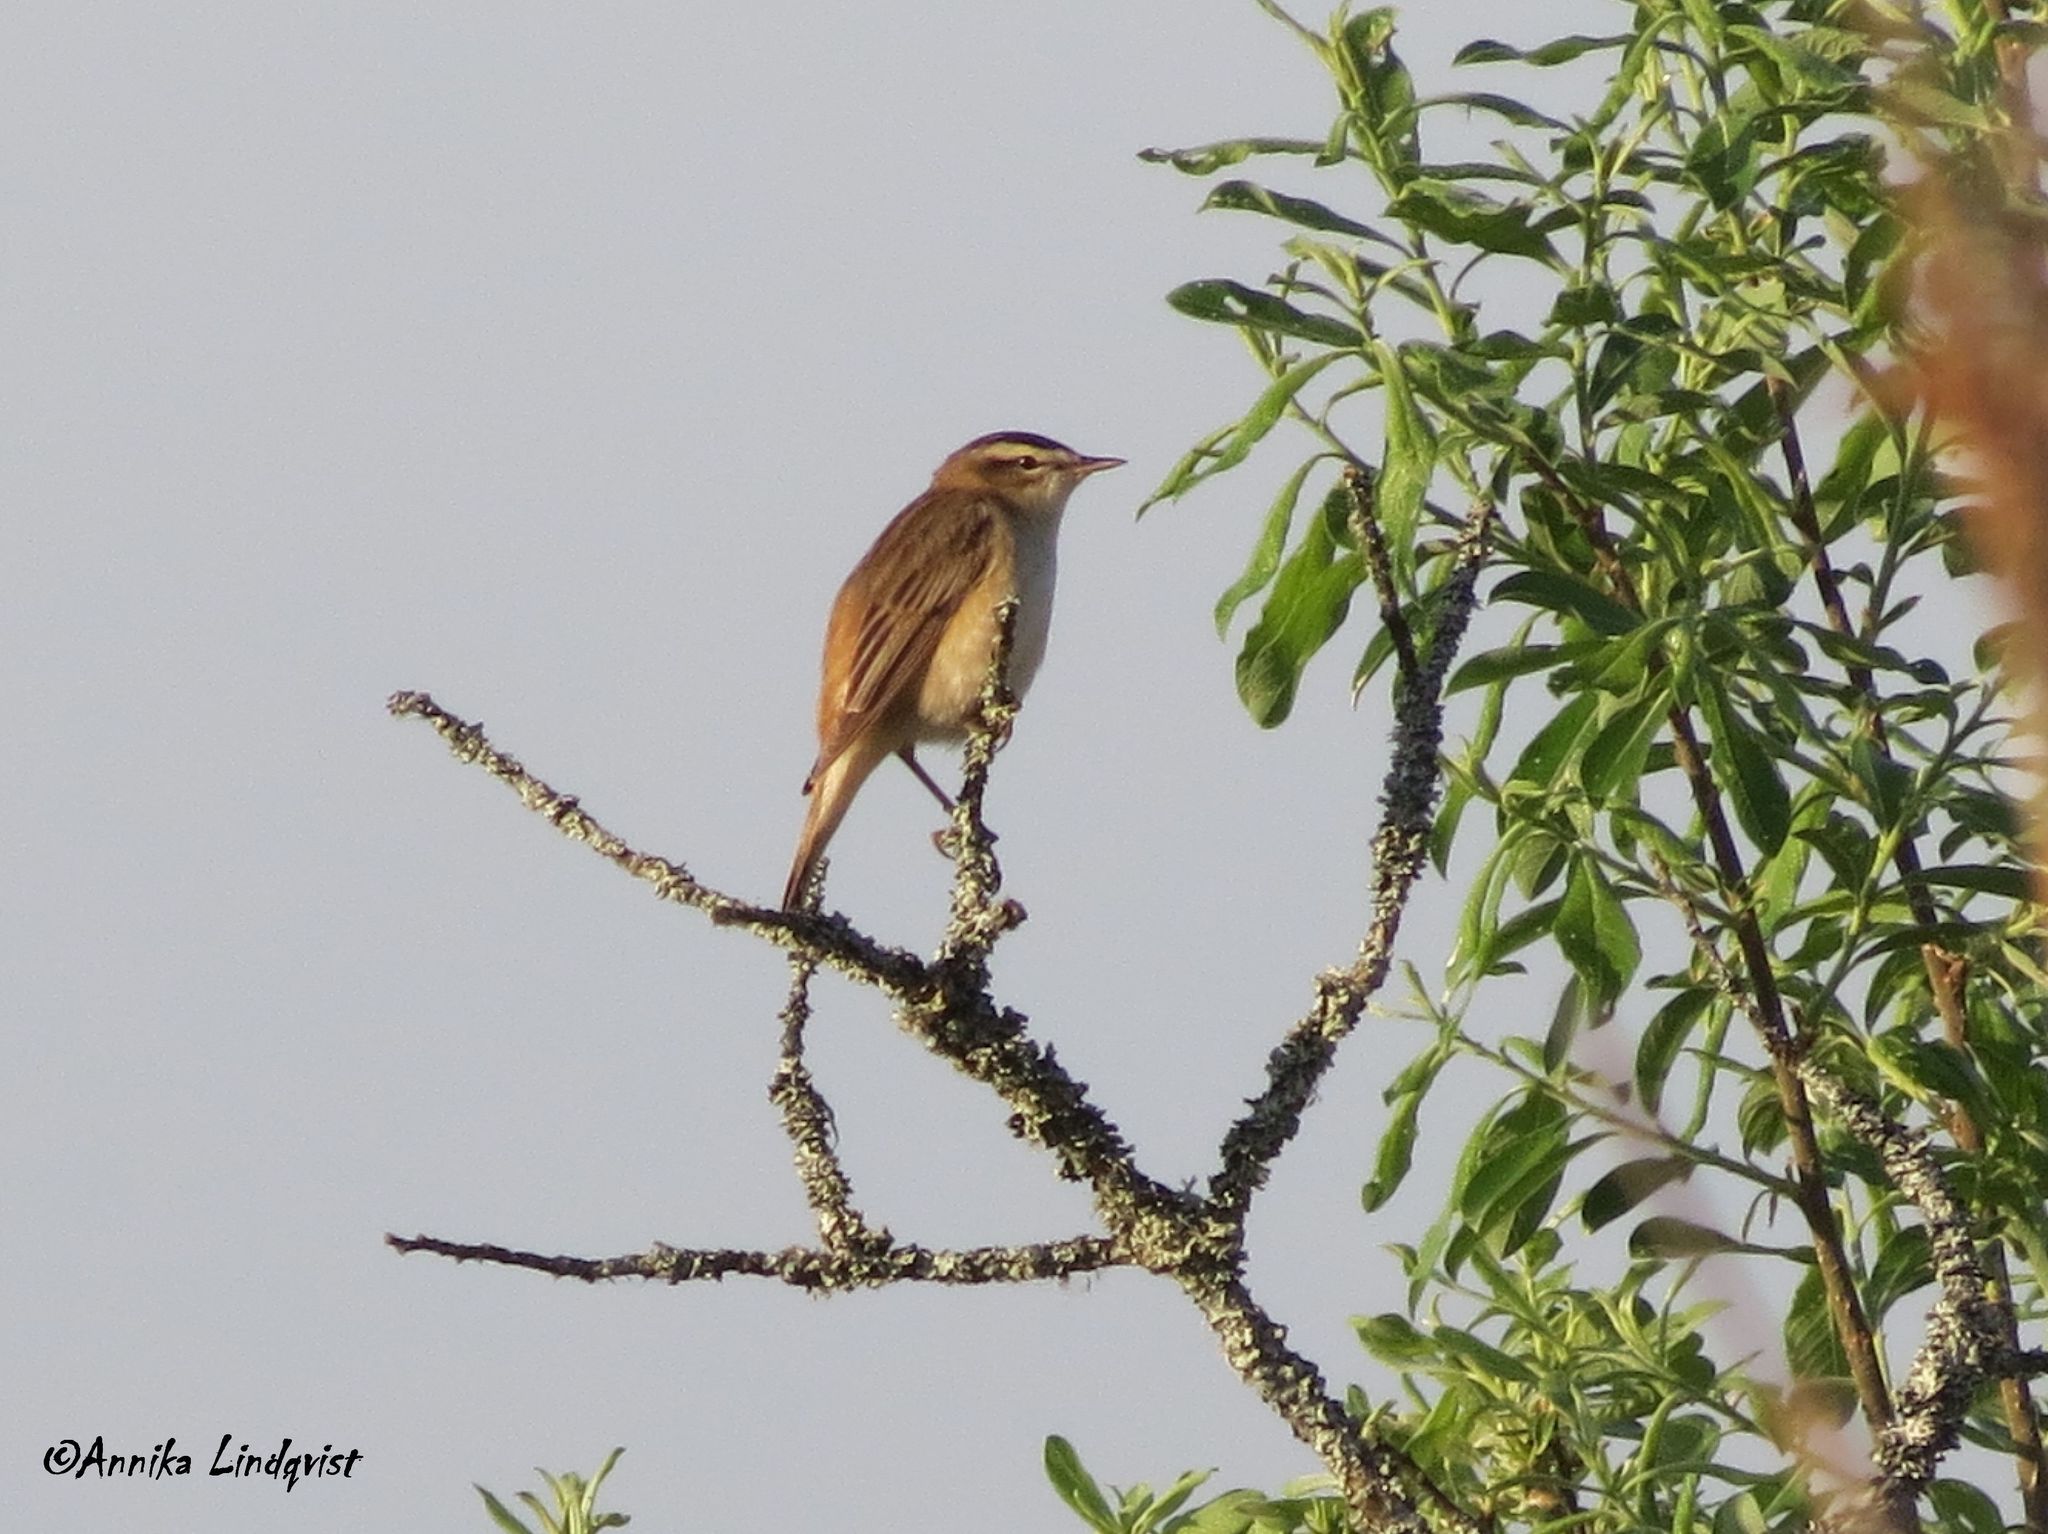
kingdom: Animalia
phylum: Chordata
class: Aves
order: Passeriformes
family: Acrocephalidae
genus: Acrocephalus
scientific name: Acrocephalus schoenobaenus
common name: Sedge warbler
